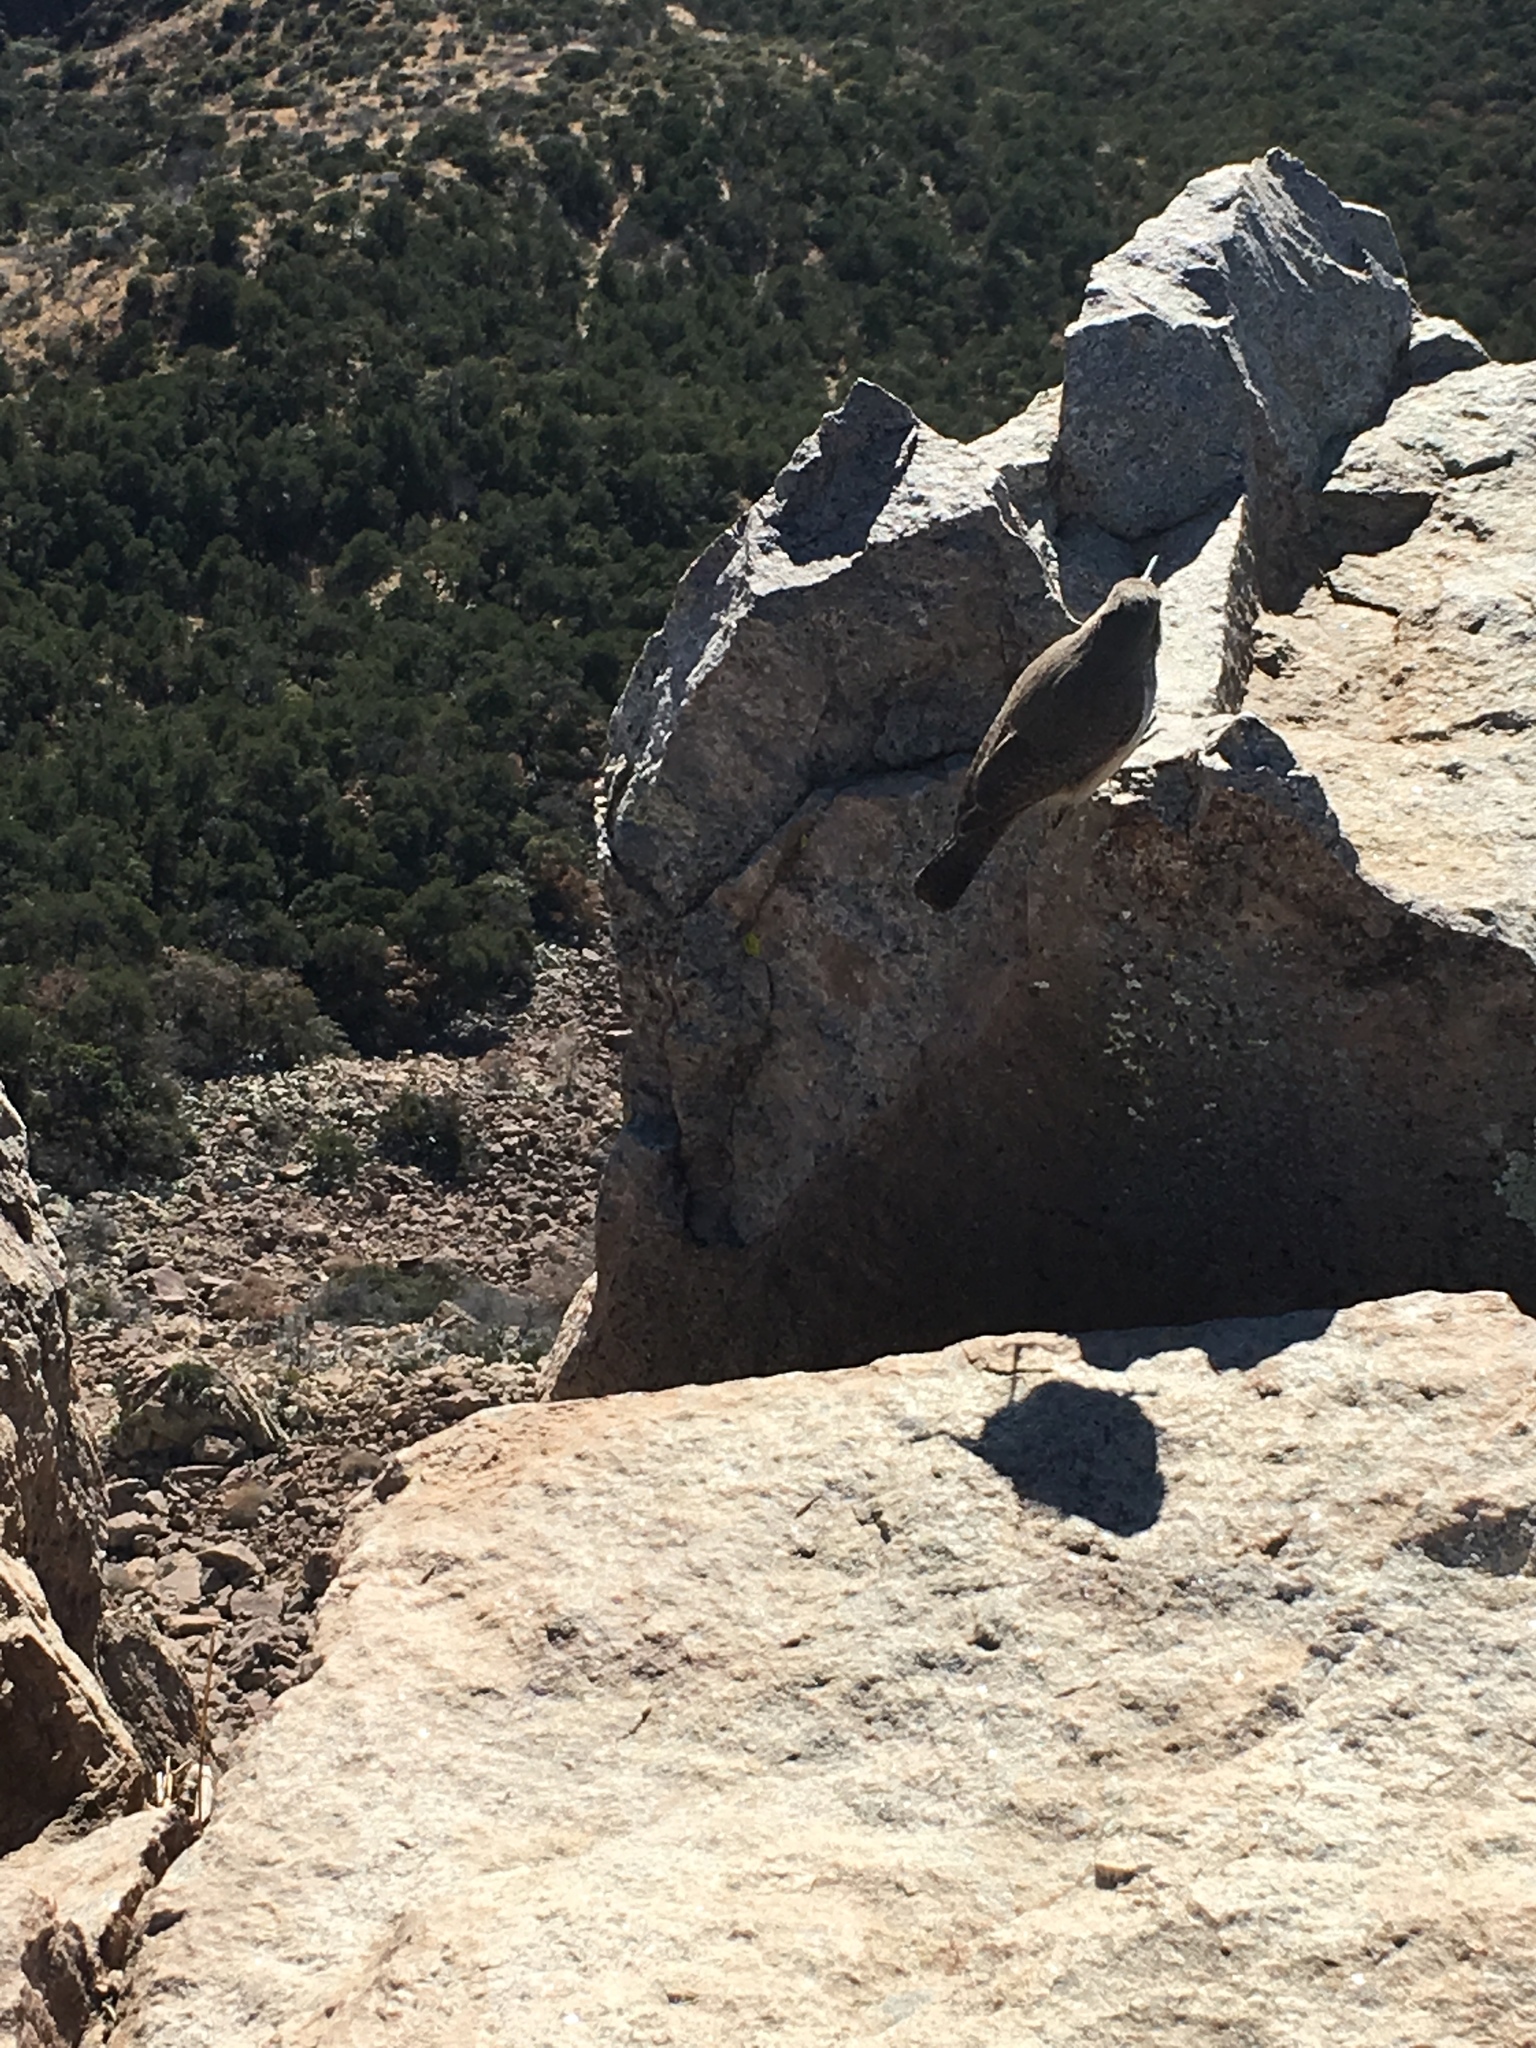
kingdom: Animalia
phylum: Chordata
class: Aves
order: Passeriformes
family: Troglodytidae
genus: Salpinctes
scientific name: Salpinctes obsoletus
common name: Rock wren
